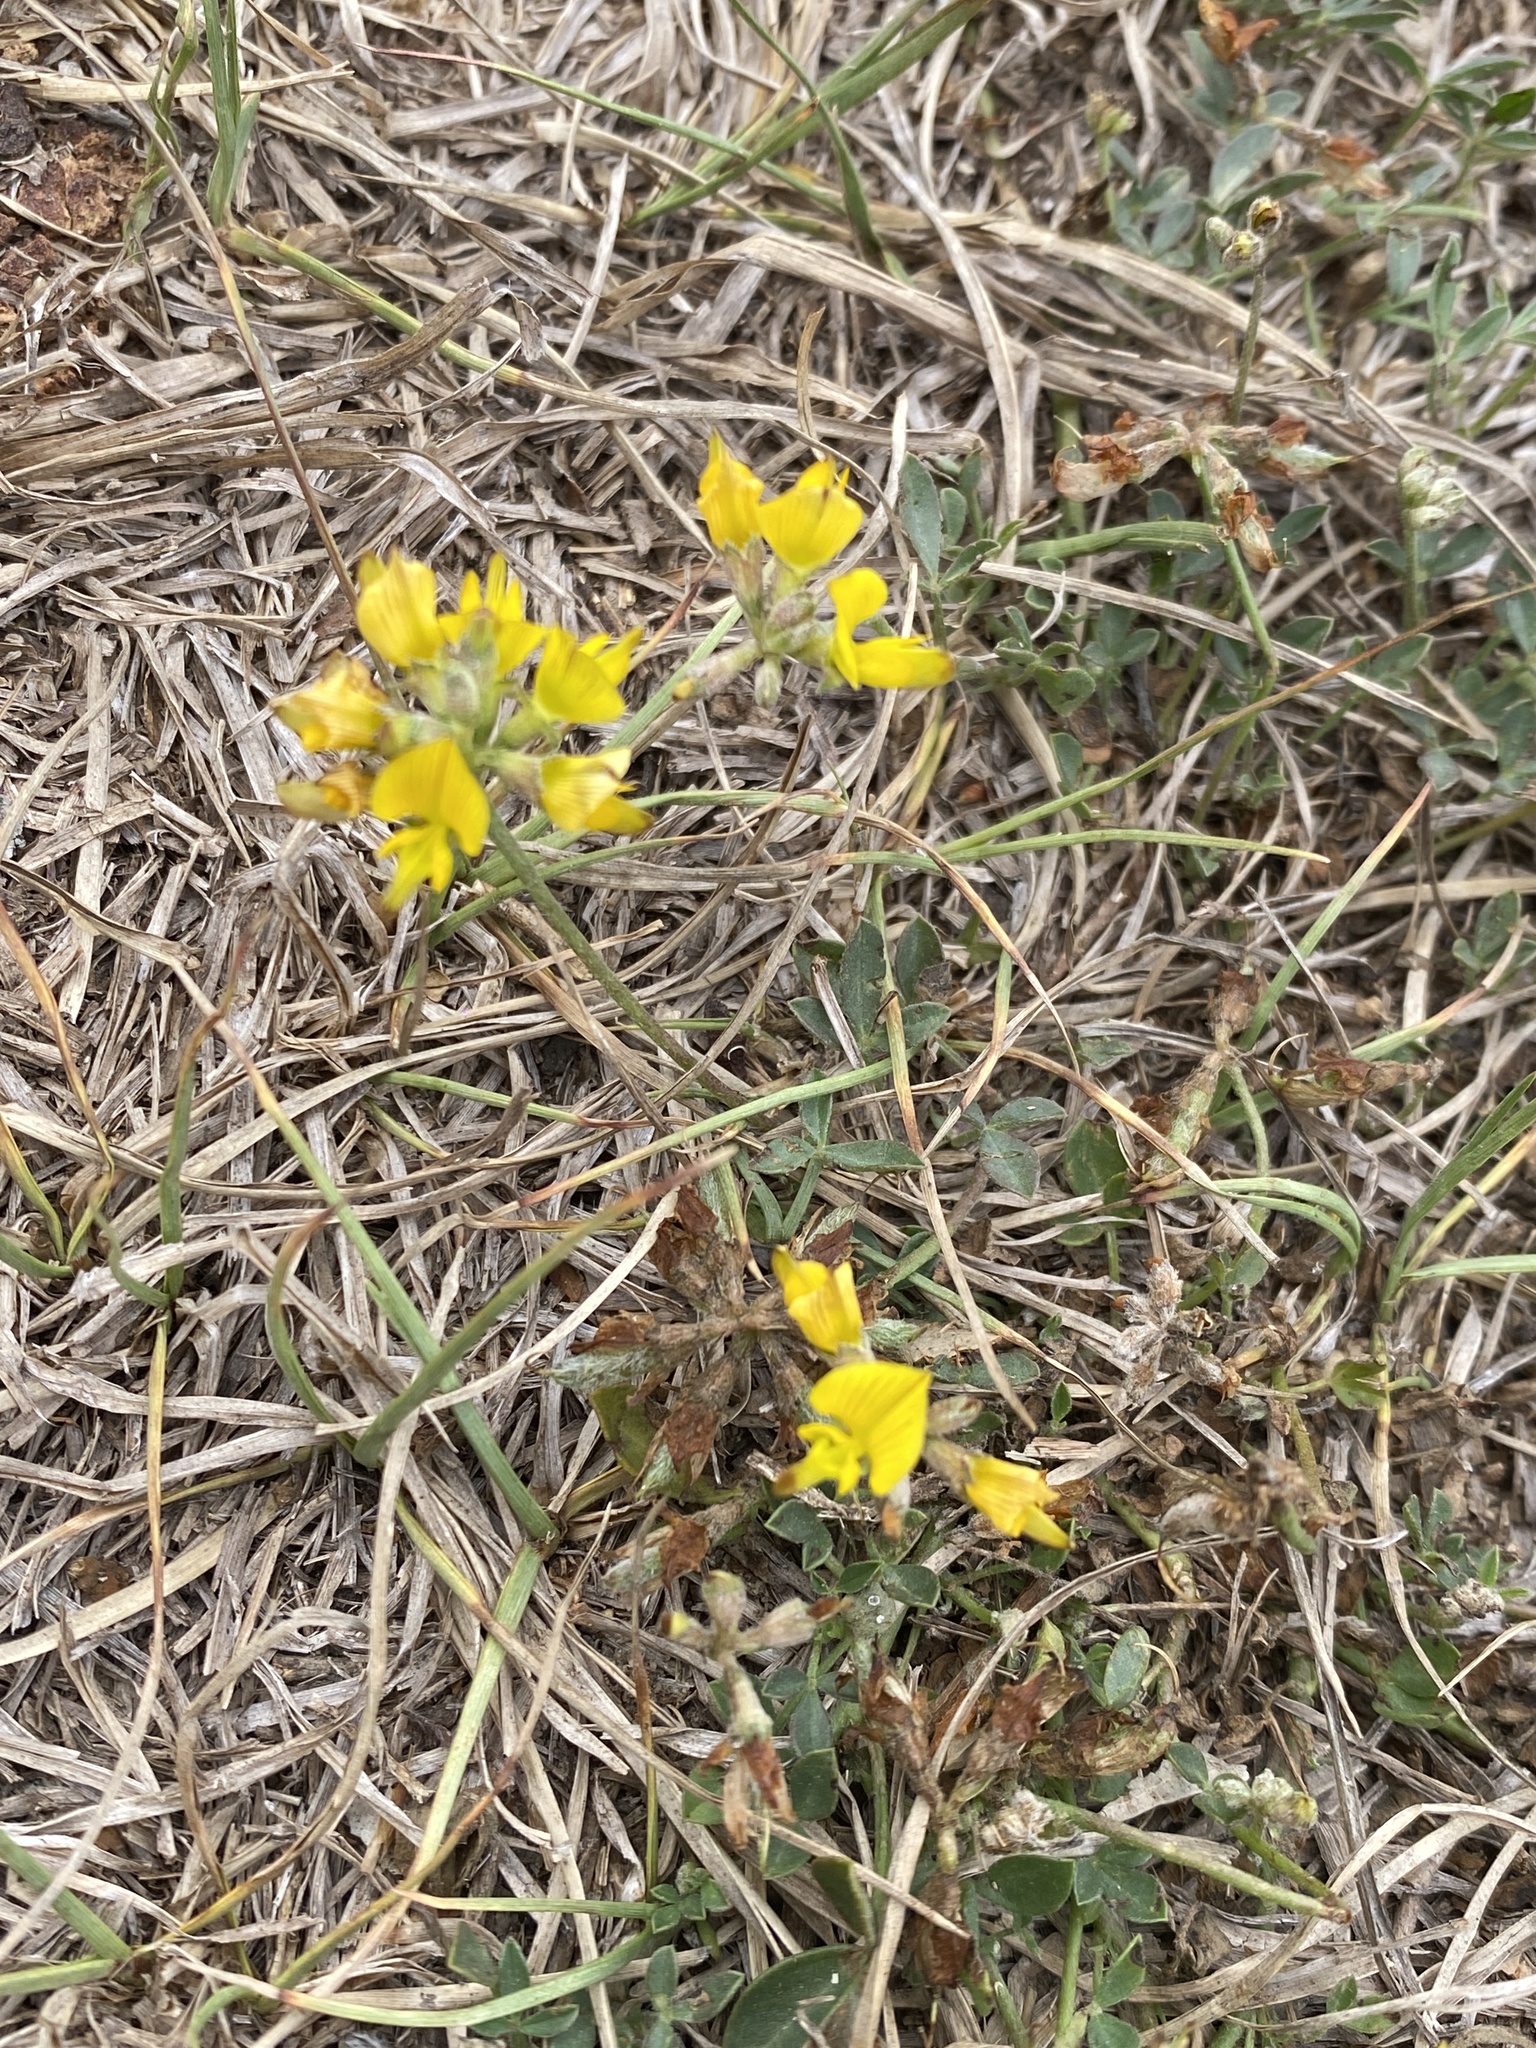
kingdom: Plantae
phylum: Tracheophyta
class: Magnoliopsida
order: Fabales
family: Fabaceae
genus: Listia
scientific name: Listia bainesii
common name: Lotononis
